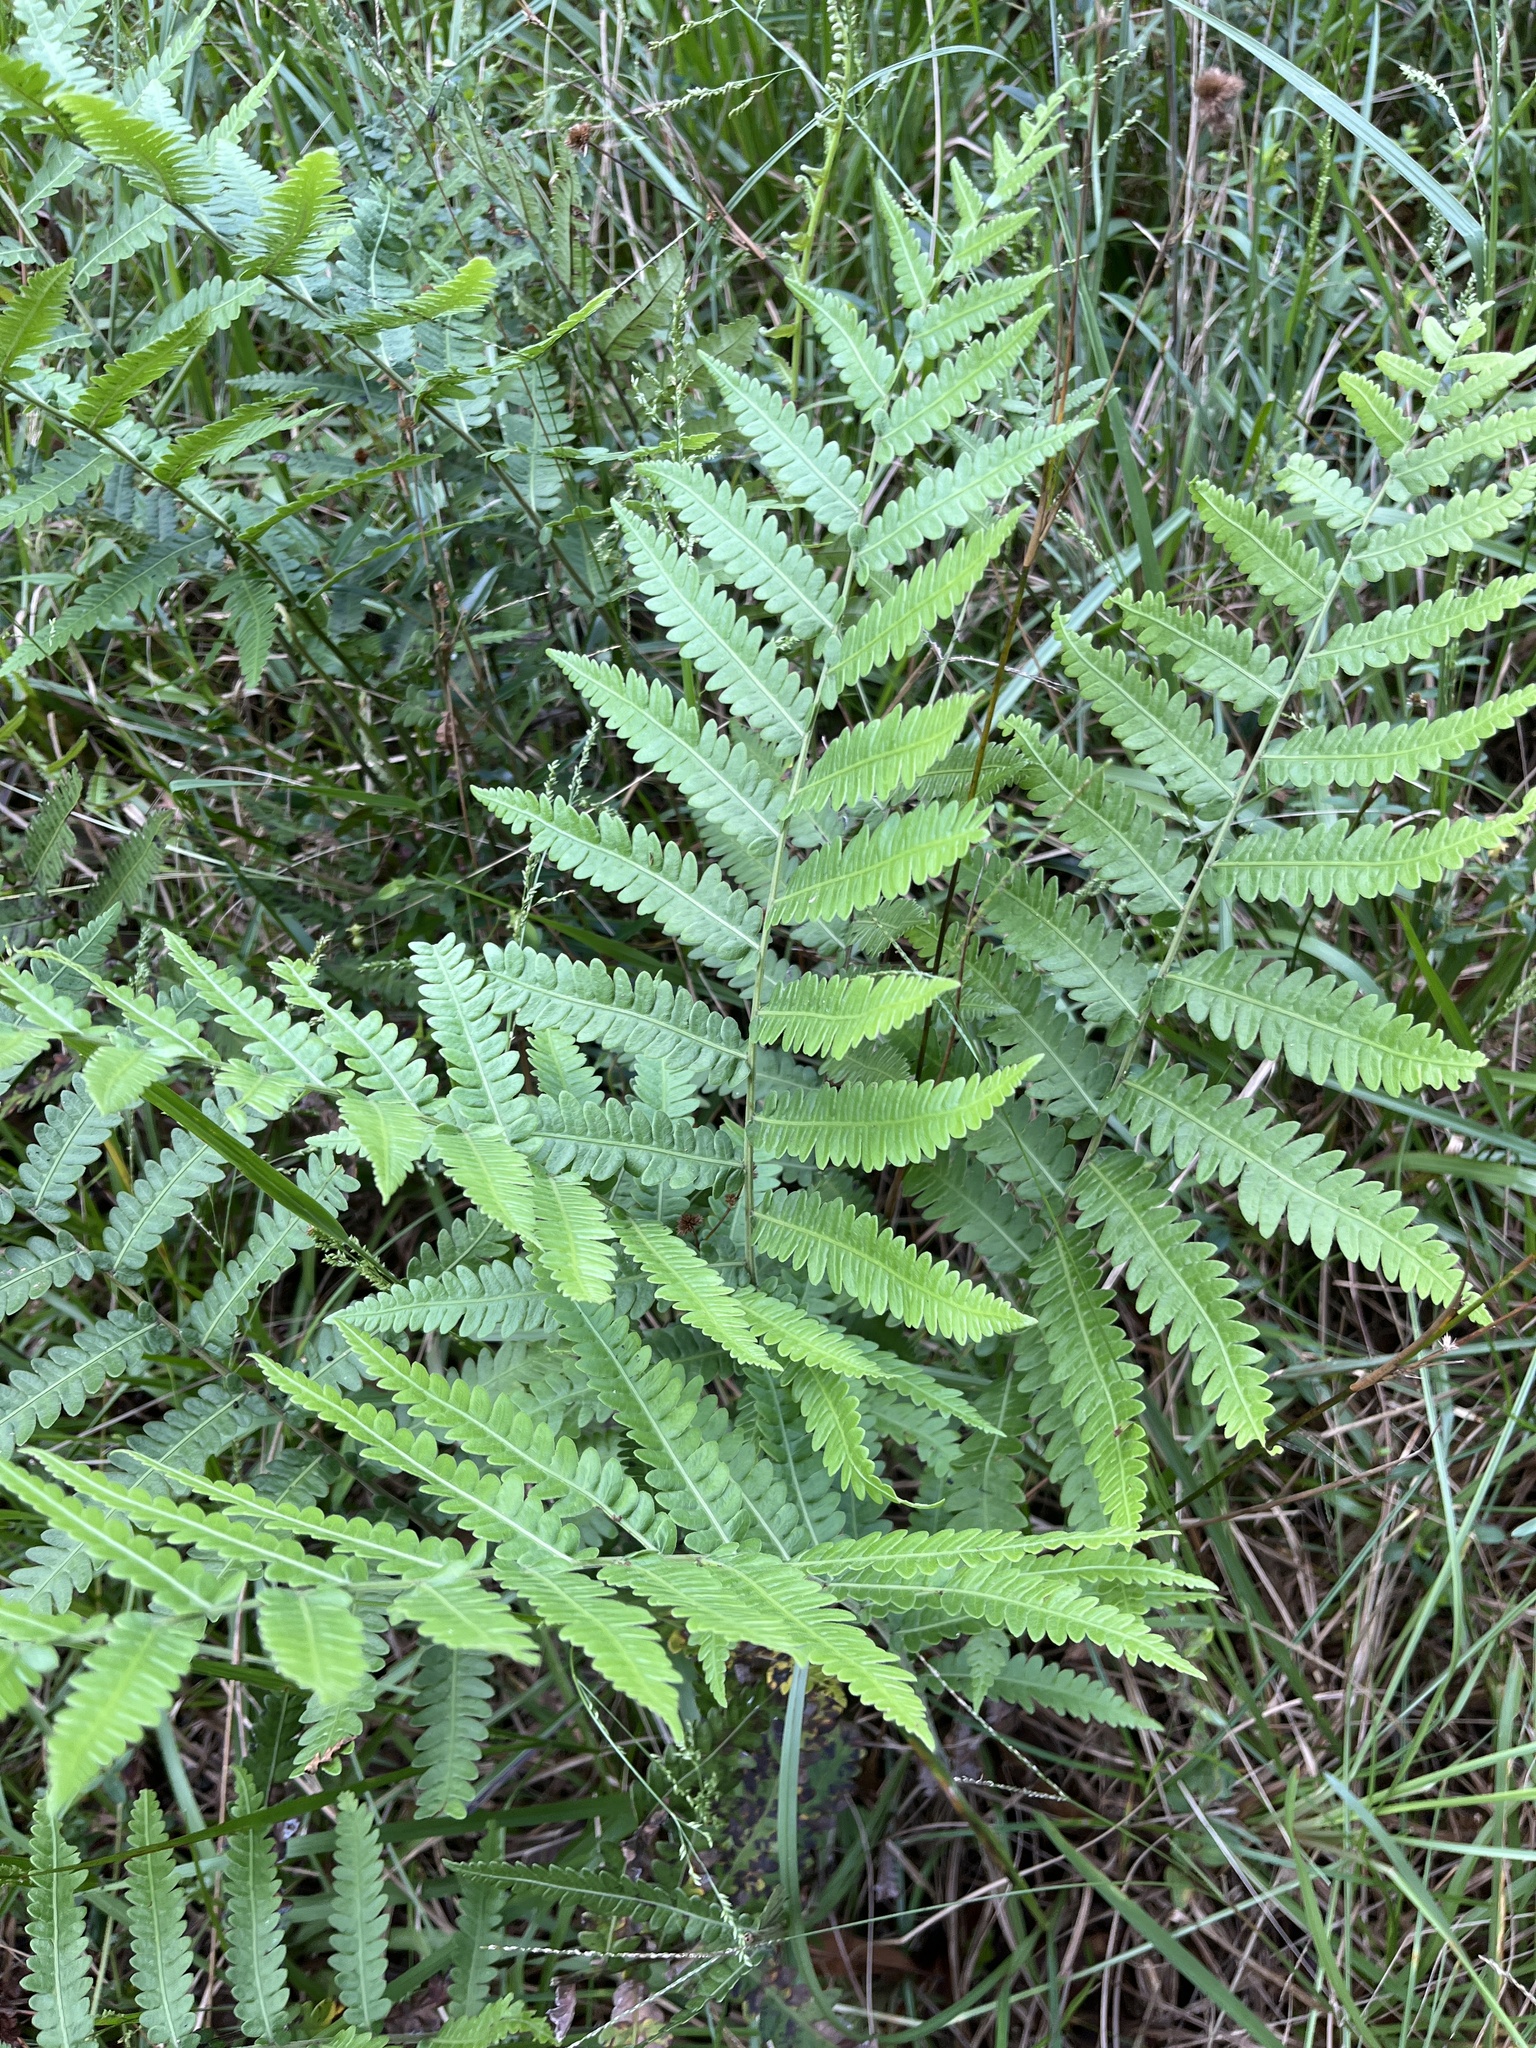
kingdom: Plantae
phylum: Tracheophyta
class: Polypodiopsida
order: Polypodiales
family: Blechnaceae
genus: Anchistea
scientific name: Anchistea virginica
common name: Virginia chain fern
